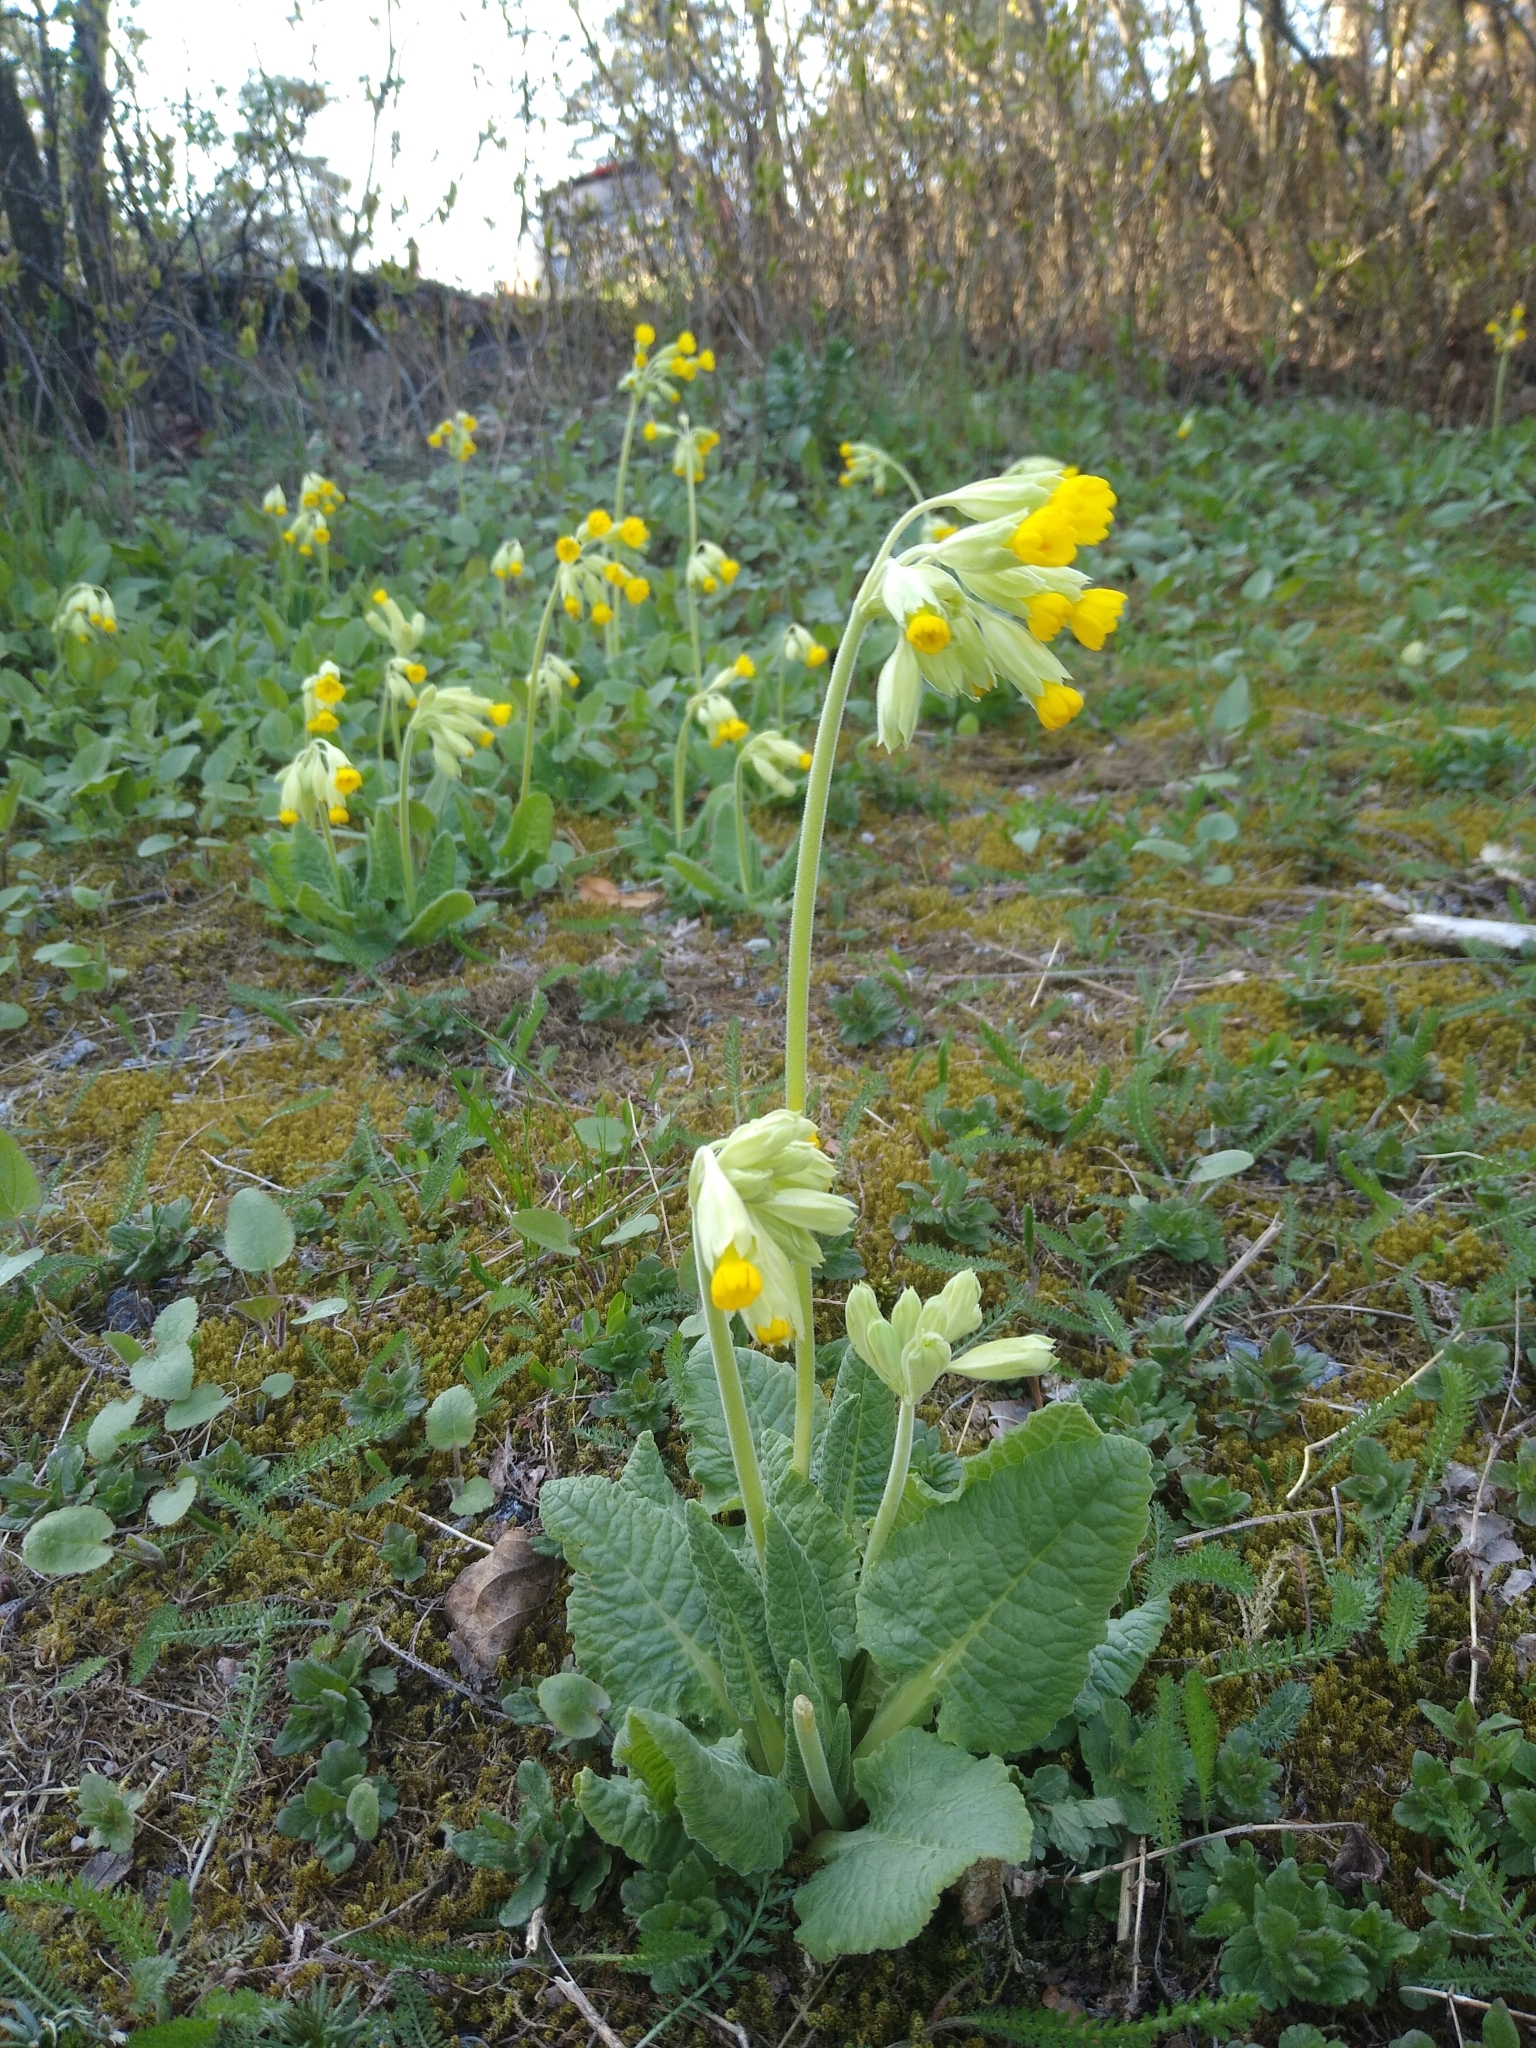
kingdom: Plantae
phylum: Tracheophyta
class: Magnoliopsida
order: Ericales
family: Primulaceae
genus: Primula
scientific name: Primula veris
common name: Cowslip
